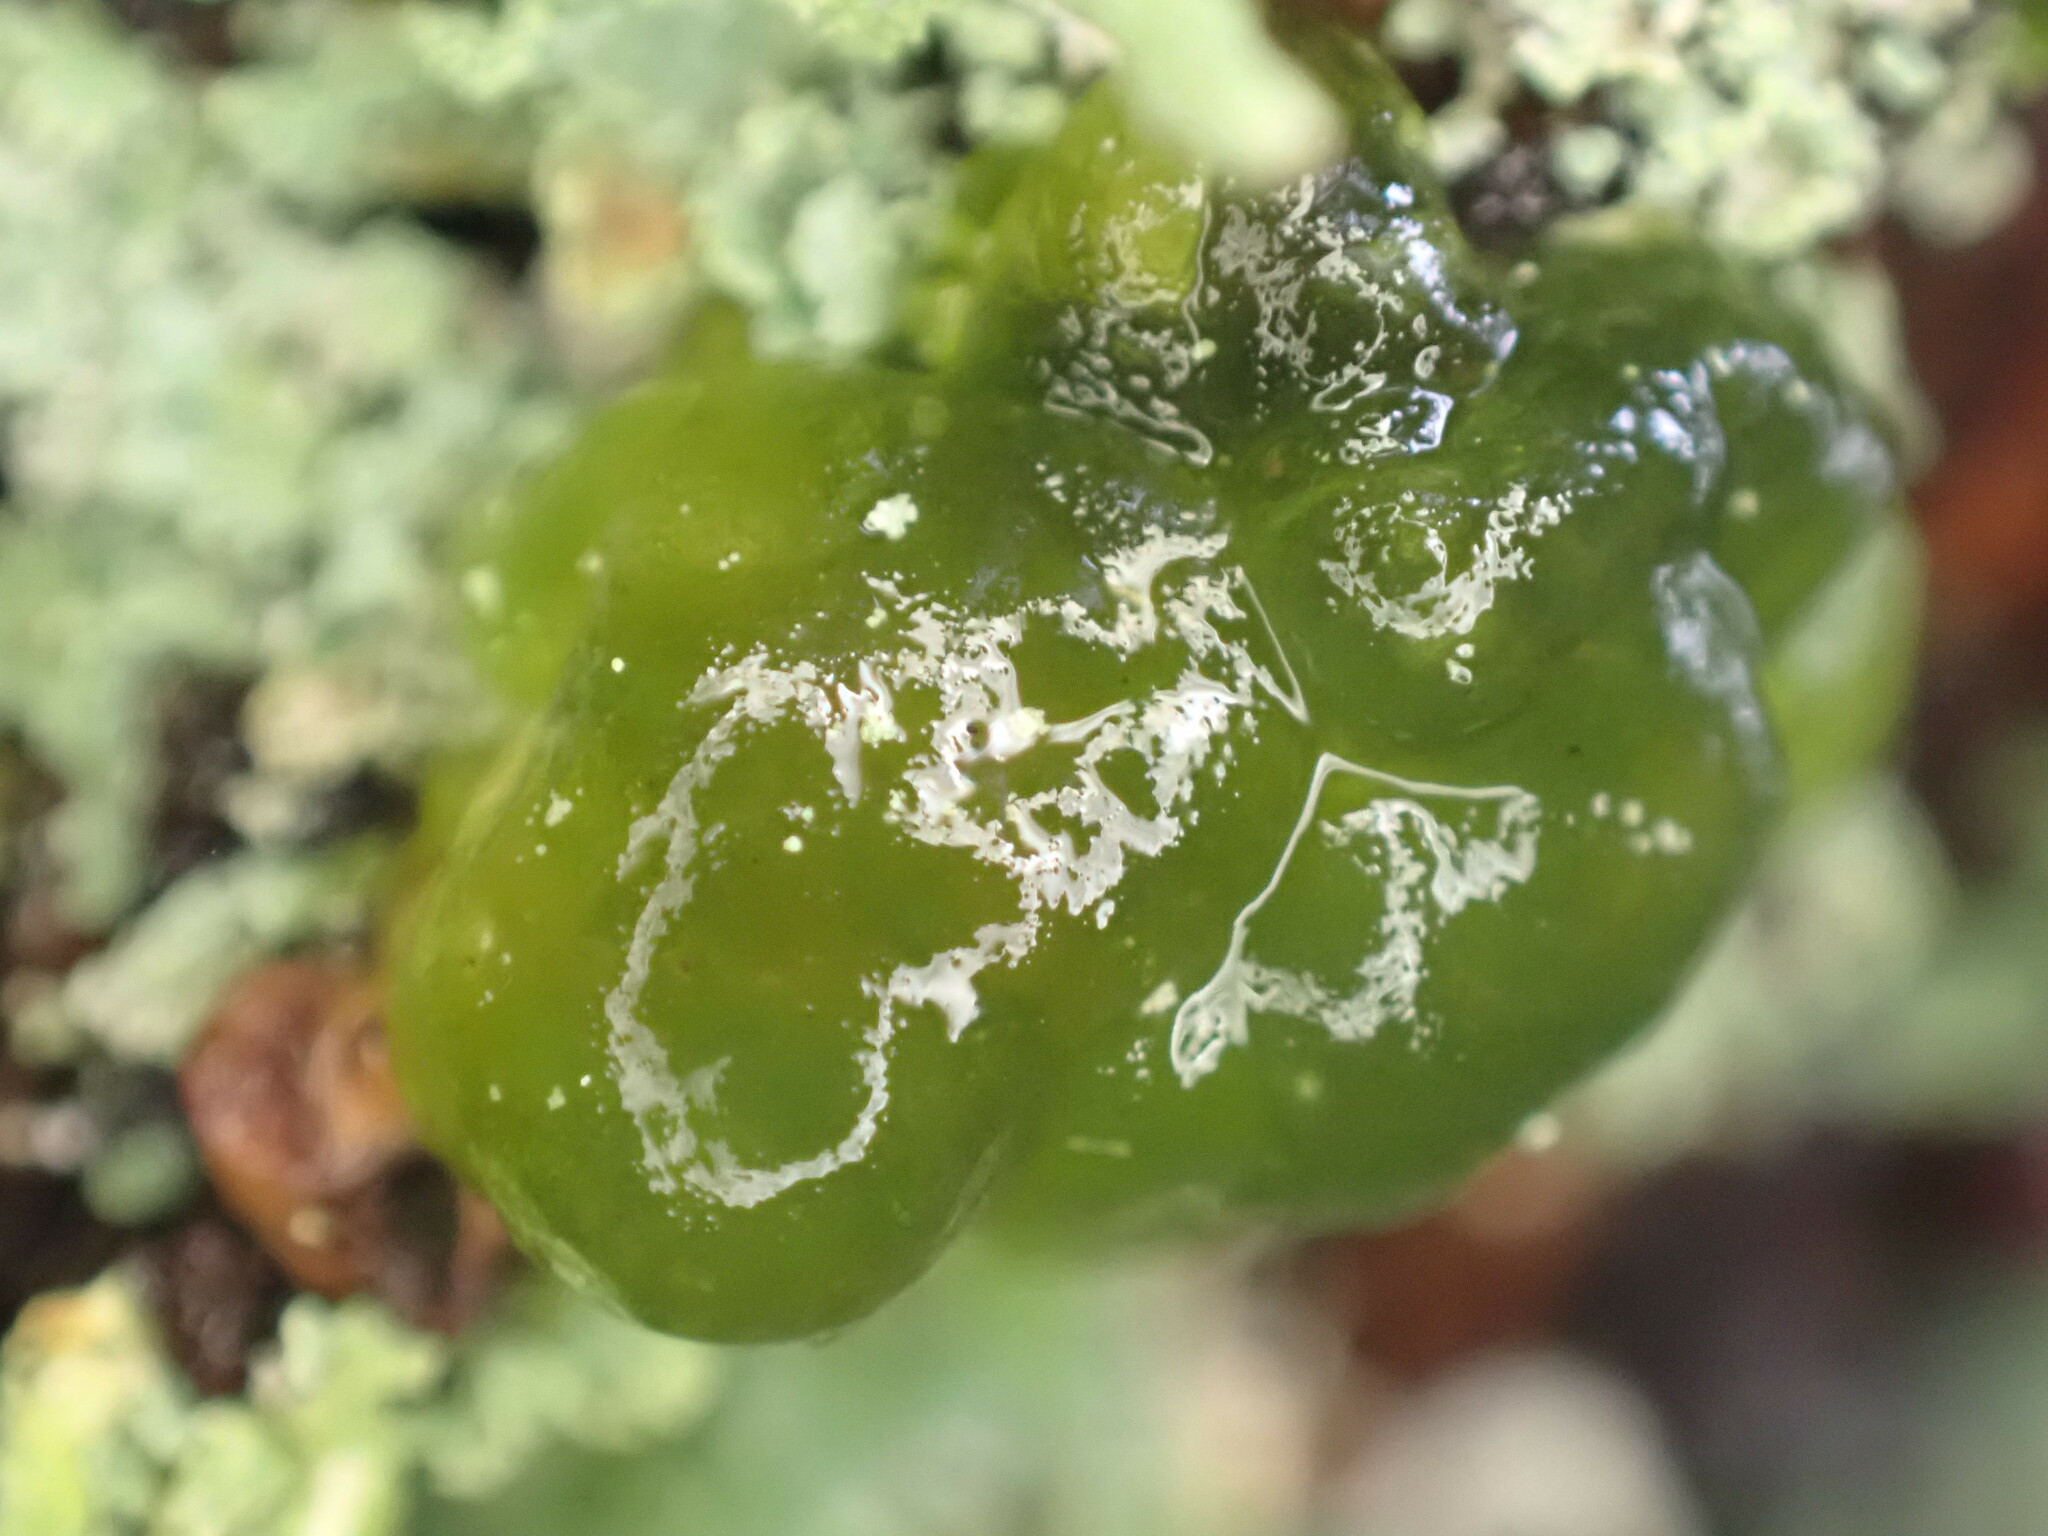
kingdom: Bacteria
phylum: Cyanobacteria
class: Cyanobacteriia
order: Cyanobacteriales
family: Nostocaceae
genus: Nostoc
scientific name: Nostoc commune
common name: Star jelly
